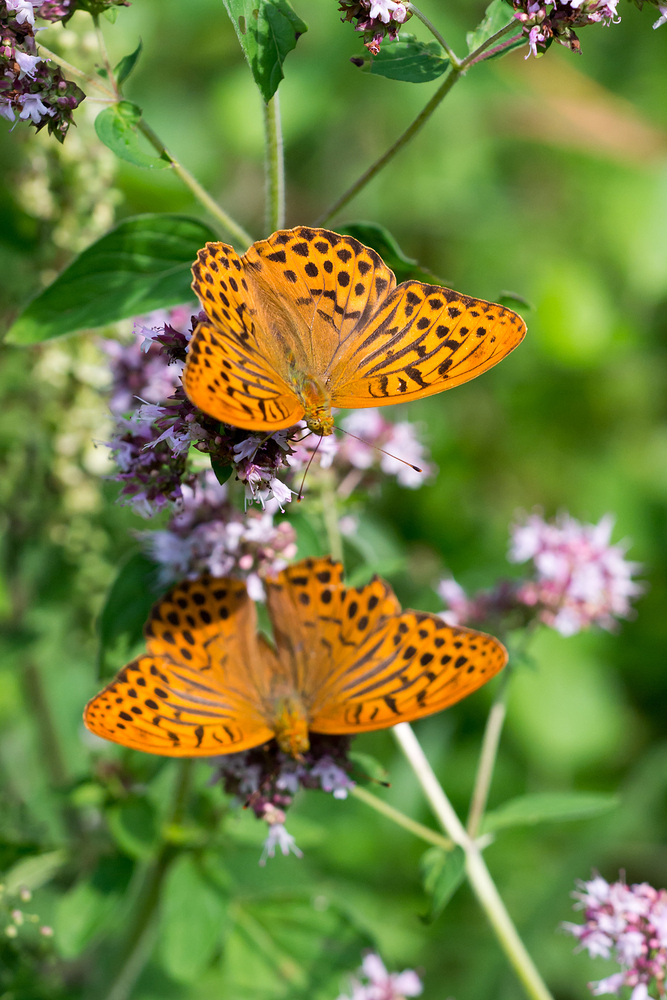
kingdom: Animalia
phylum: Arthropoda
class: Insecta
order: Lepidoptera
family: Nymphalidae
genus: Argynnis
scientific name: Argynnis paphia
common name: Silver-washed fritillary
